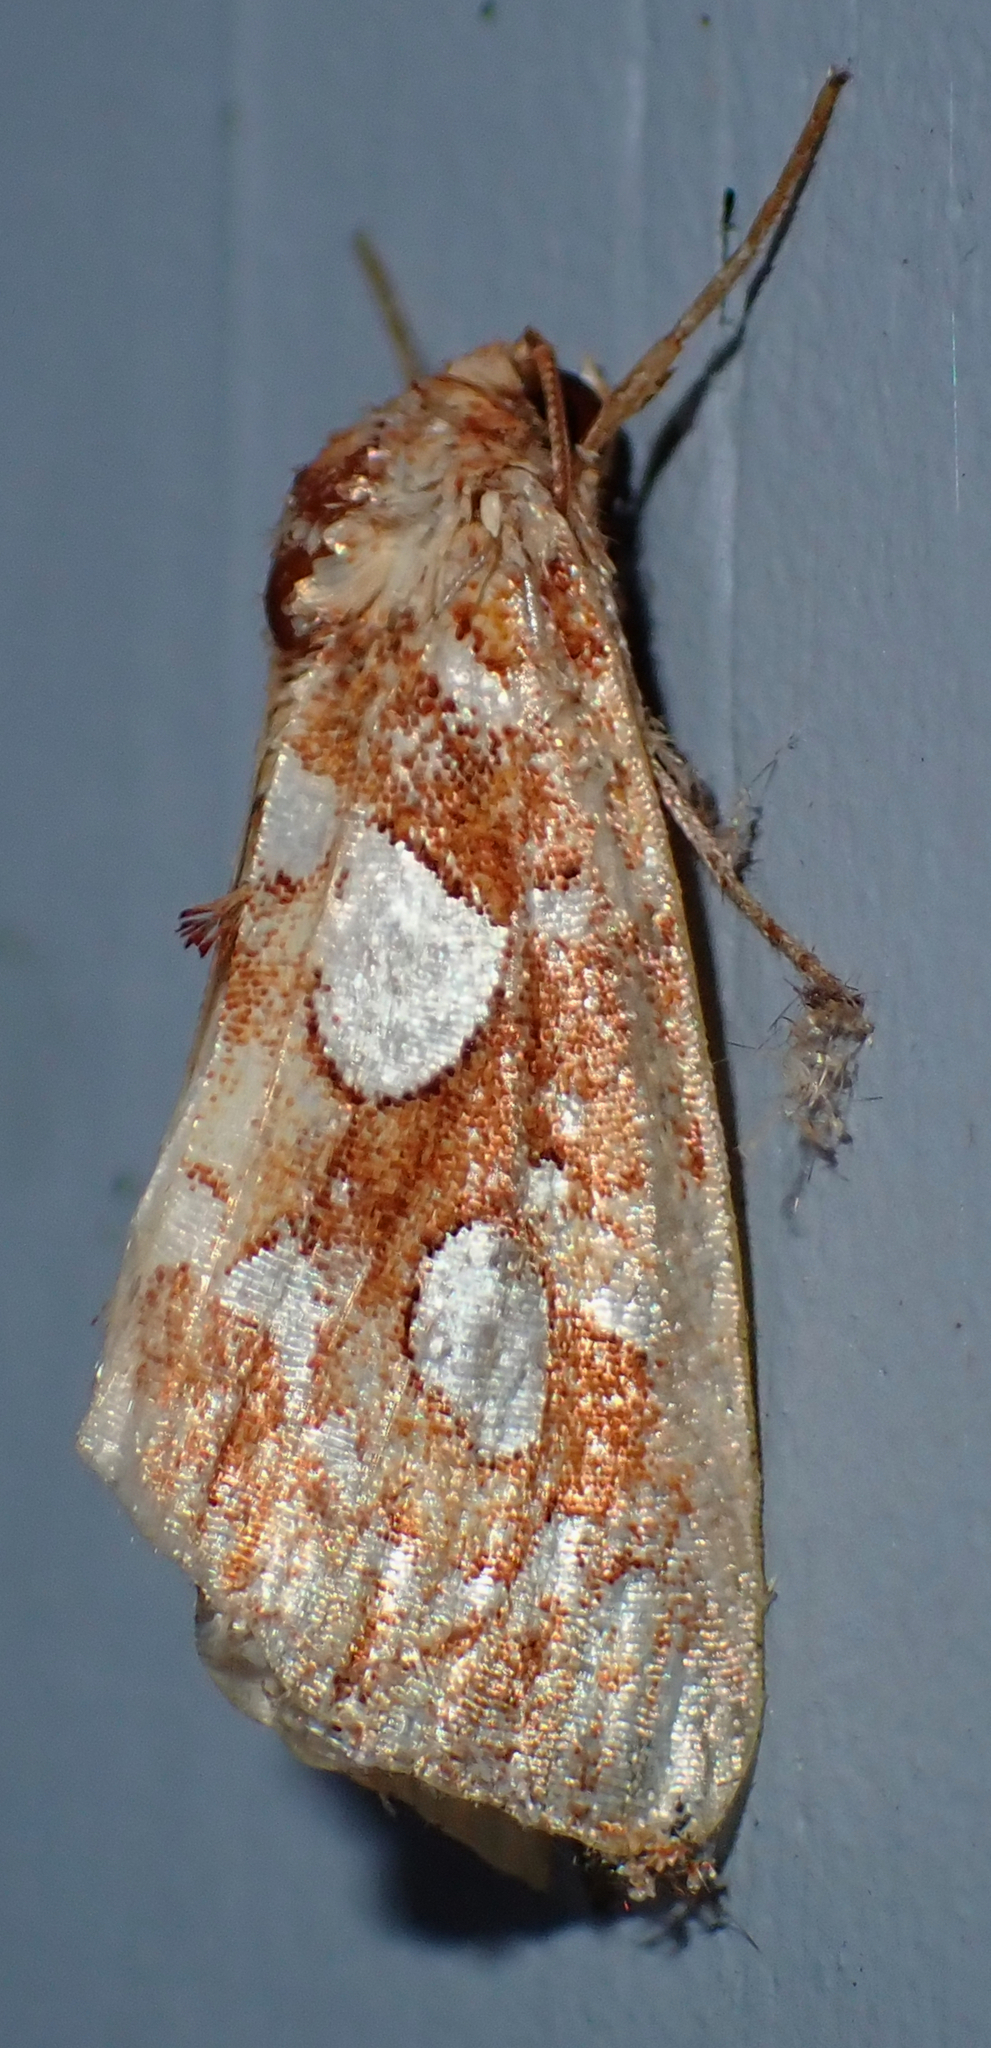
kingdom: Animalia
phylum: Arthropoda
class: Insecta
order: Lepidoptera
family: Noctuidae
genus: Callopistria
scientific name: Callopistria cordata
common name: Silver-spotted fern moth
